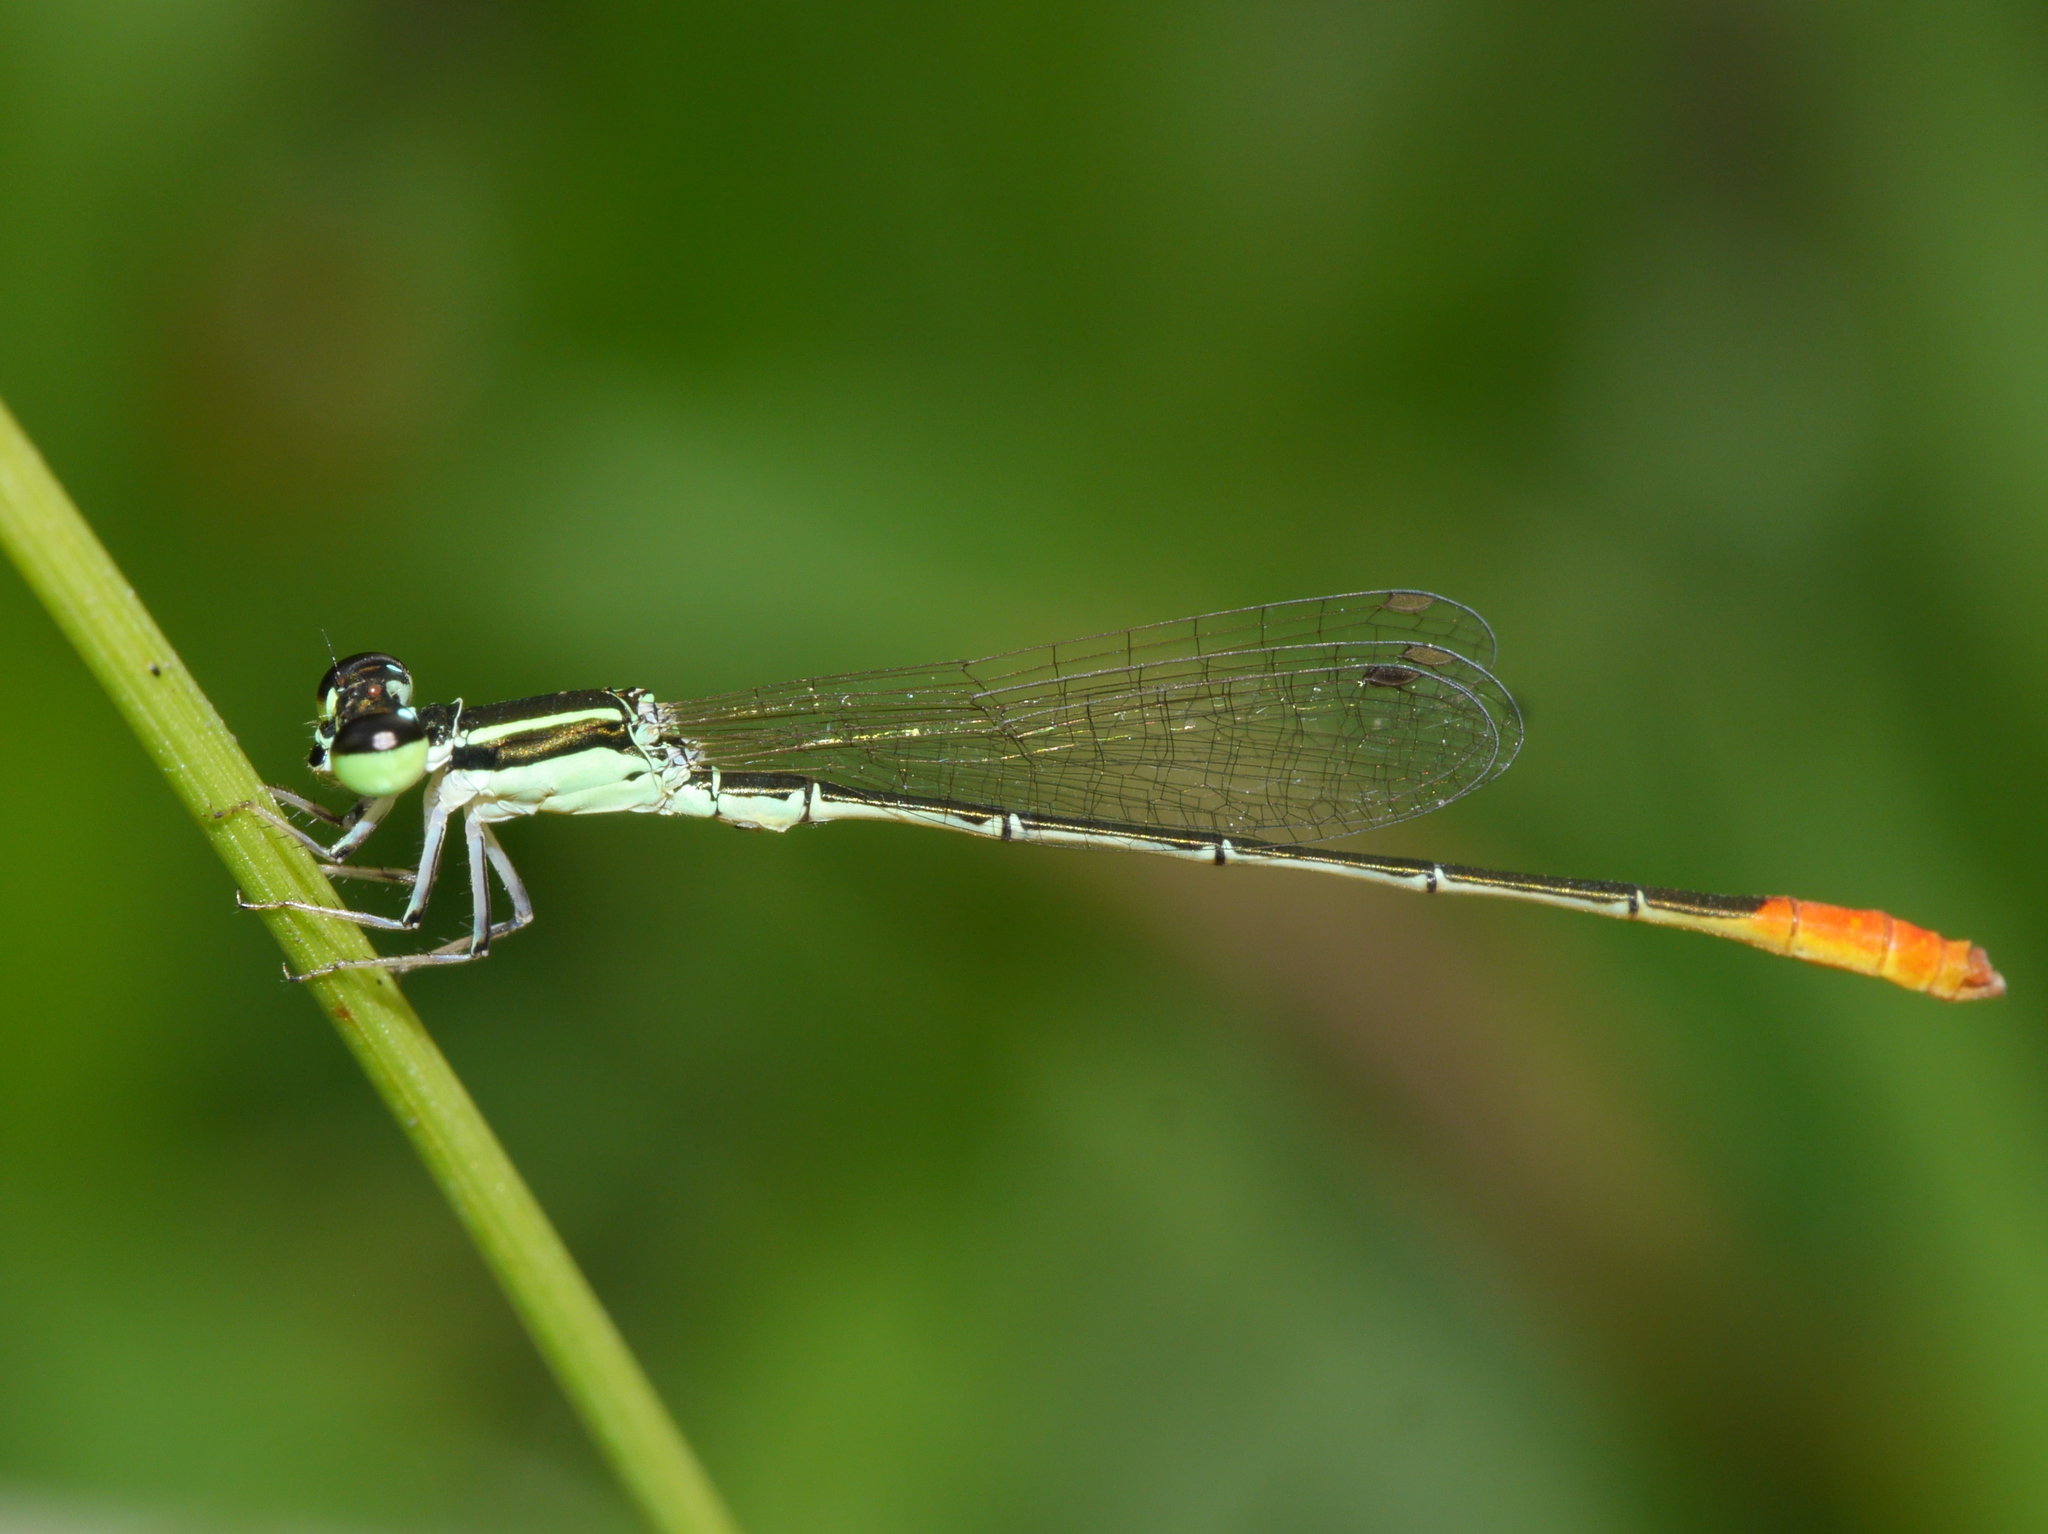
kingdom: Animalia
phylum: Arthropoda
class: Insecta
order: Odonata
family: Coenagrionidae
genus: Agriocnemis
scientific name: Agriocnemis femina
